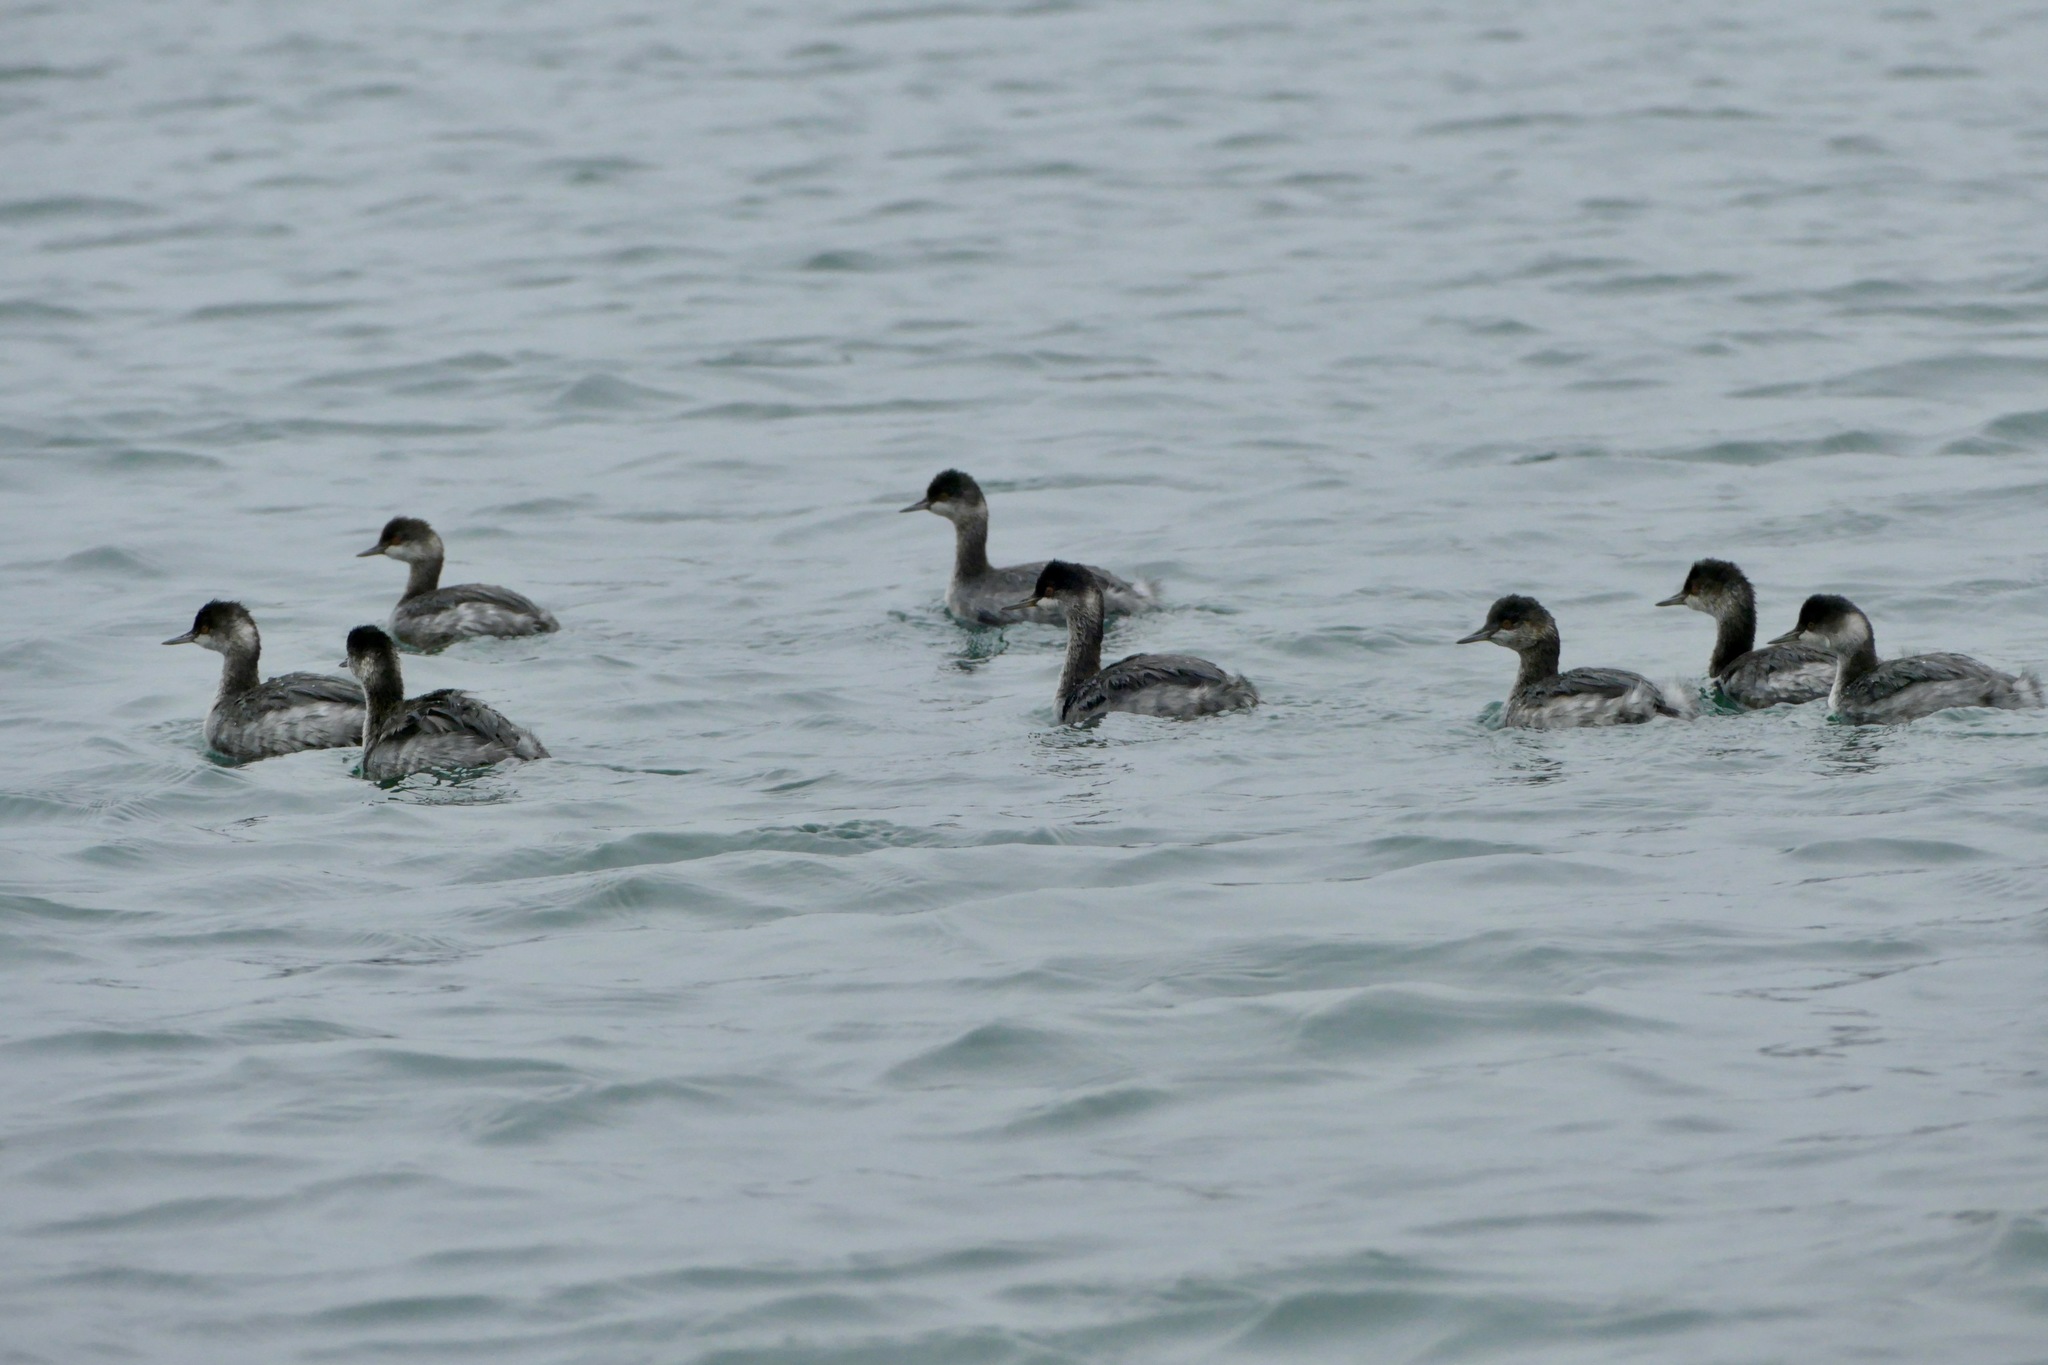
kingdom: Animalia
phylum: Chordata
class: Aves
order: Podicipediformes
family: Podicipedidae
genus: Podiceps
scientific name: Podiceps nigricollis
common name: Black-necked grebe
